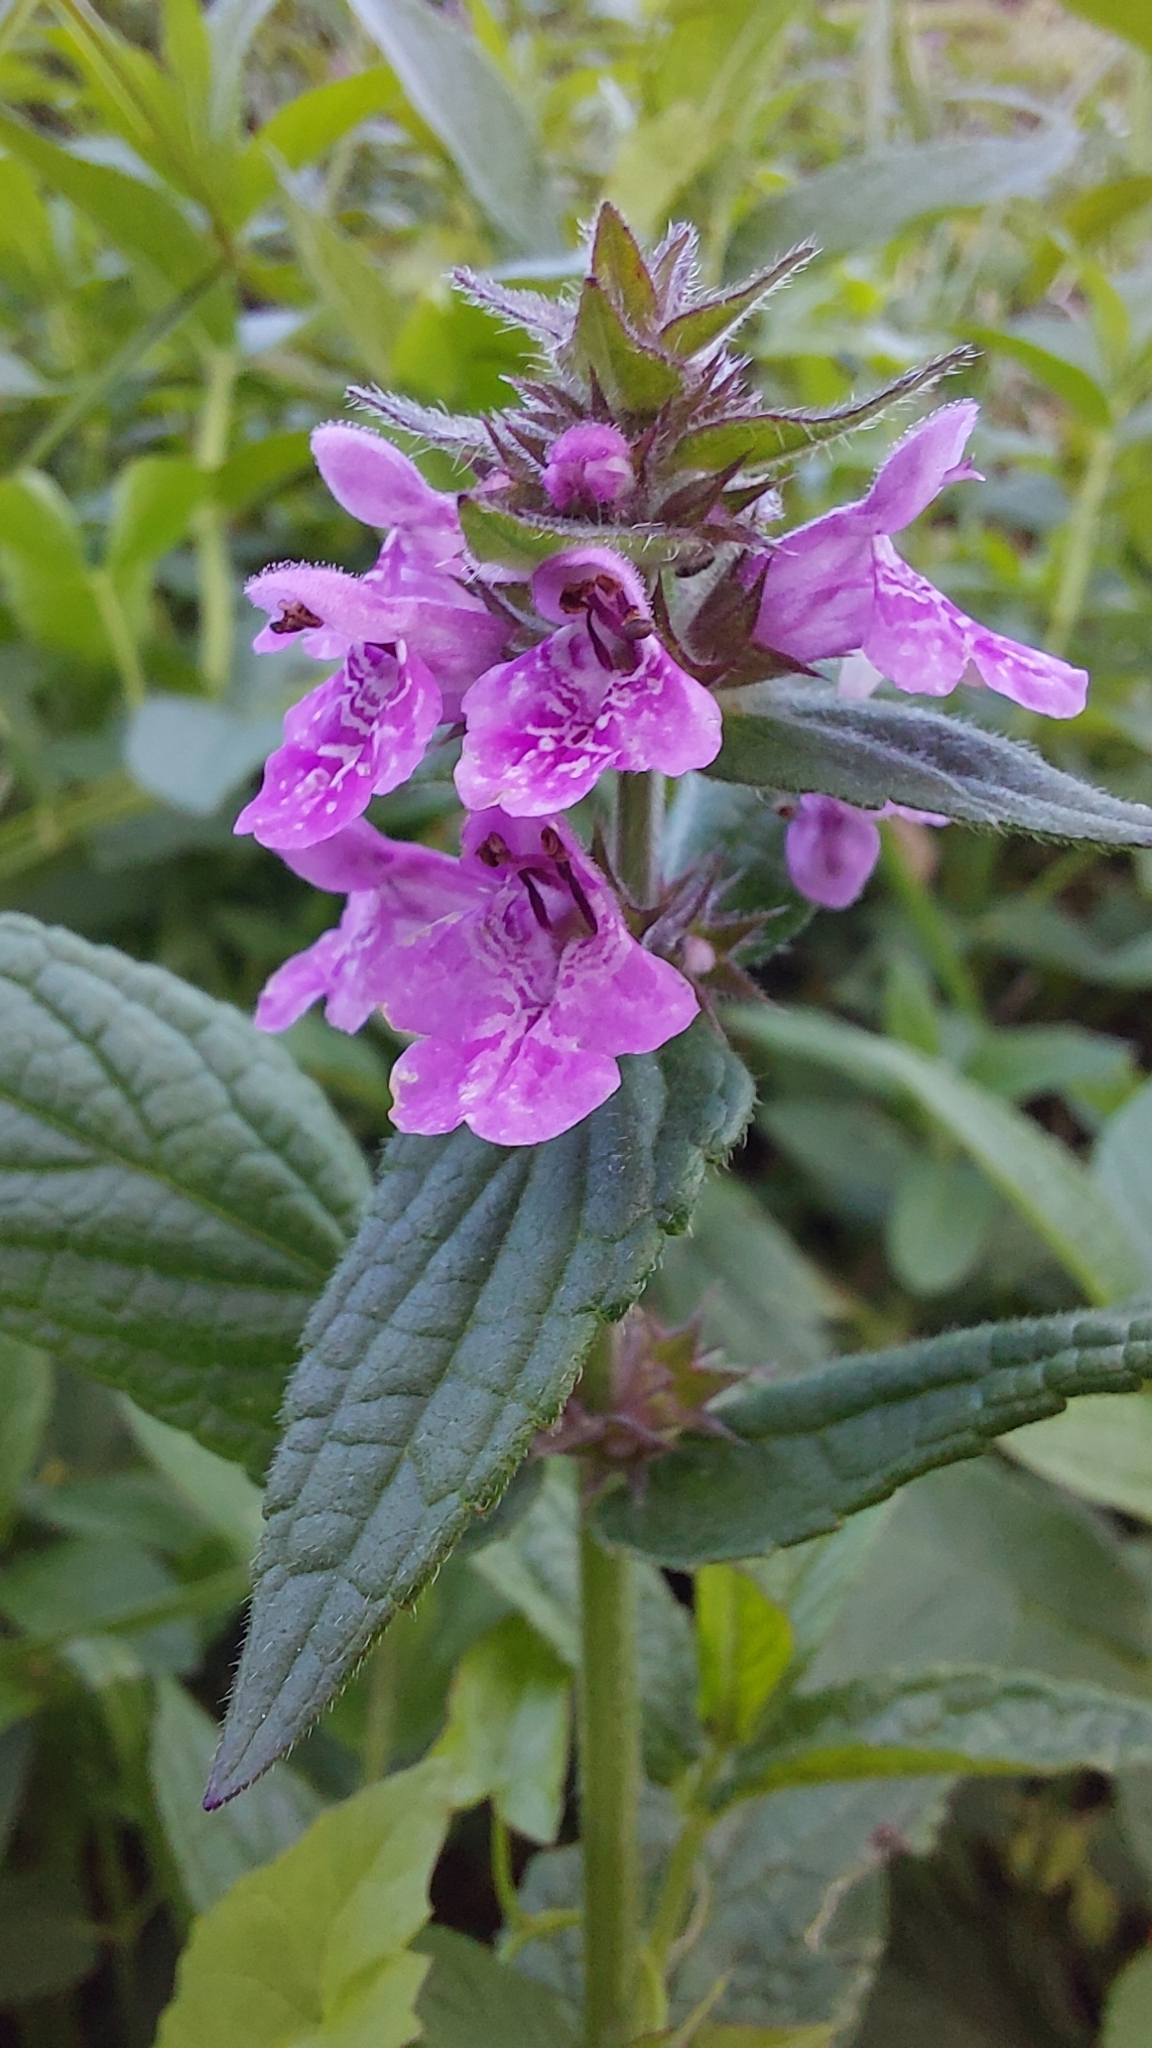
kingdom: Plantae
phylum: Tracheophyta
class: Magnoliopsida
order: Lamiales
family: Lamiaceae
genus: Stachys
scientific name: Stachys palustris
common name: Marsh woundwort
